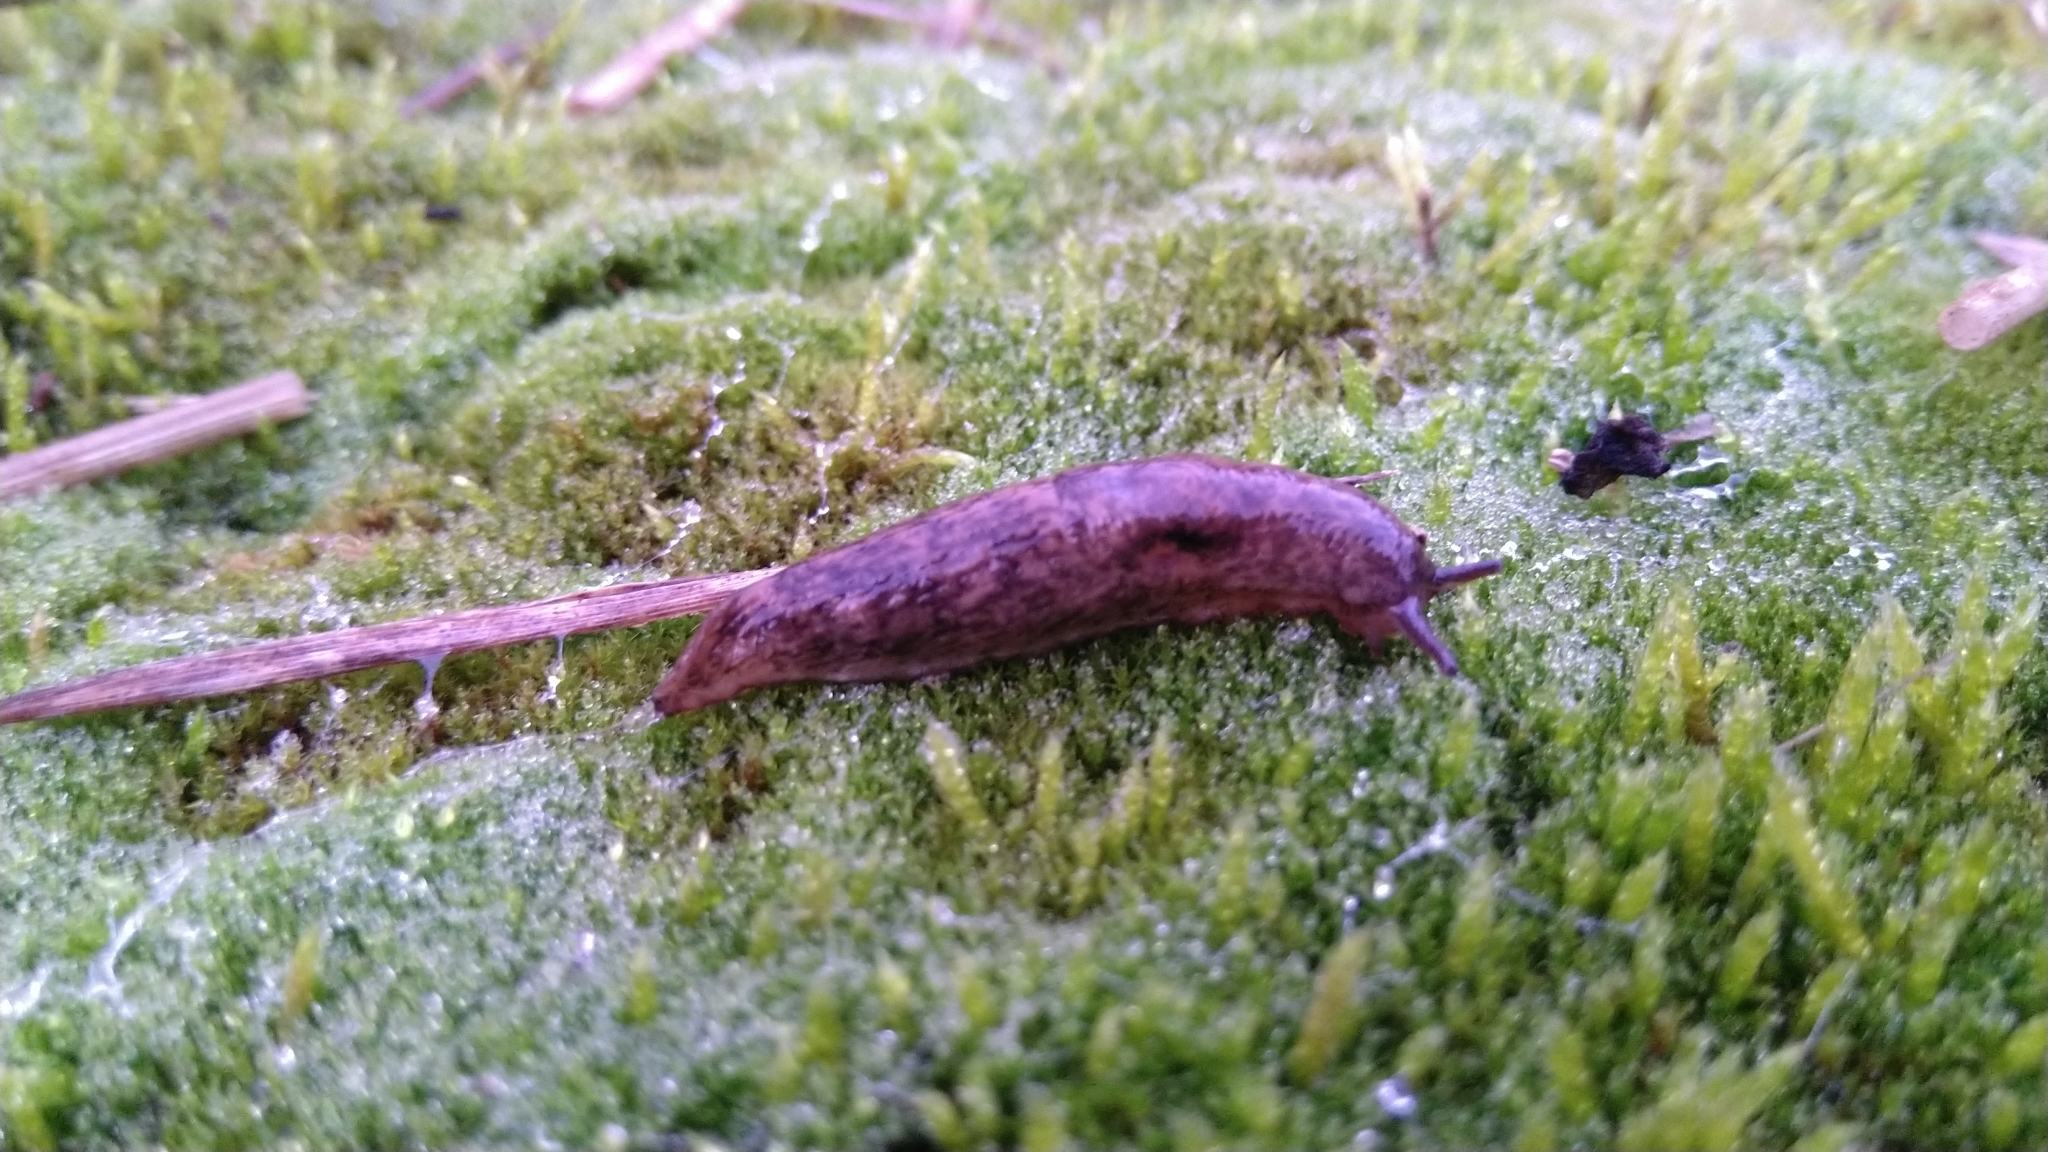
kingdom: Animalia
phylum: Mollusca
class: Gastropoda
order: Stylommatophora
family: Agriolimacidae
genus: Deroceras
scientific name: Deroceras reticulatum
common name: Gray field slug
